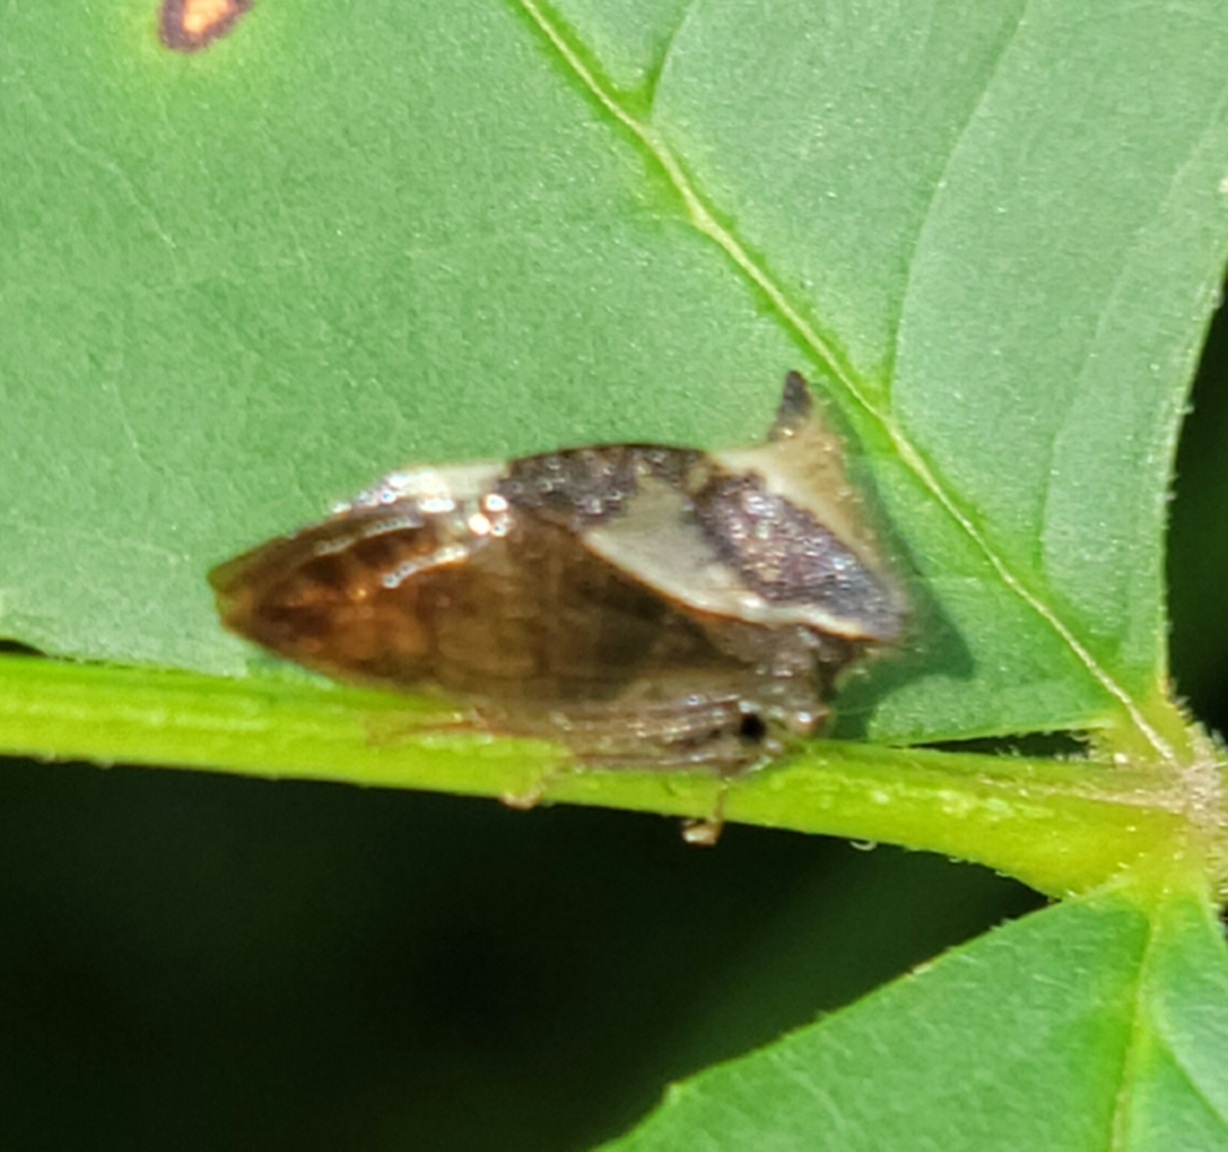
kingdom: Animalia
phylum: Arthropoda
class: Insecta
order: Hemiptera
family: Membracidae
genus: Stictocephala
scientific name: Stictocephala diceros
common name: Two-horned treehopper
